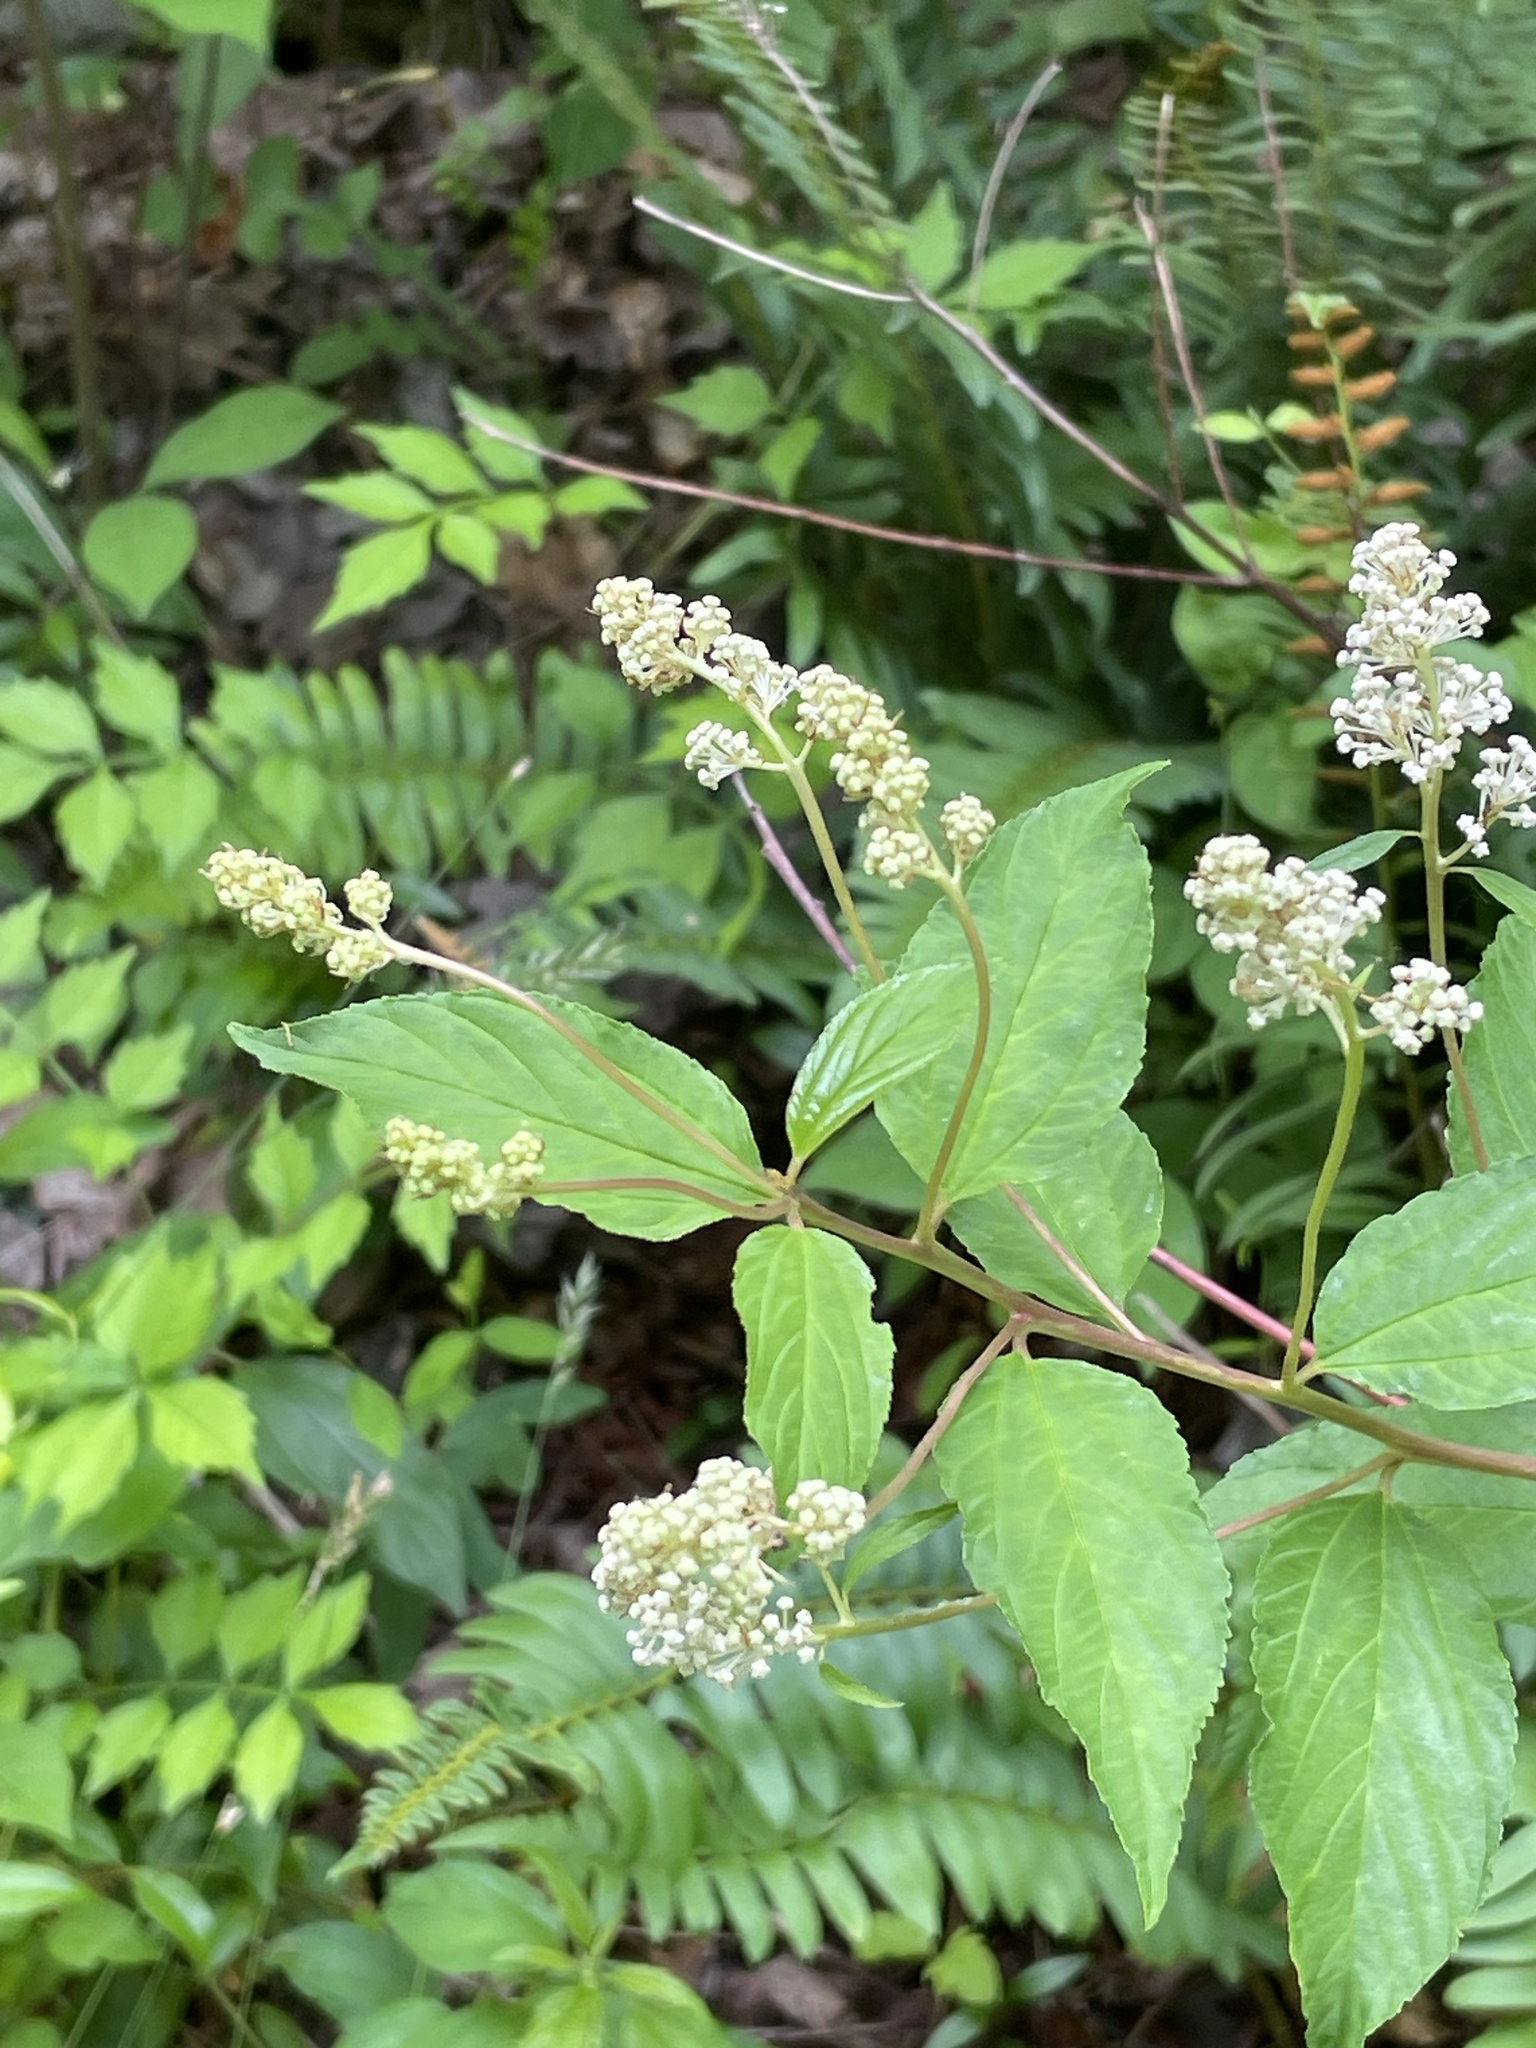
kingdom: Plantae
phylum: Tracheophyta
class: Magnoliopsida
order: Rosales
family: Rhamnaceae
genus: Ceanothus
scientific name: Ceanothus americanus
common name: Redroot
